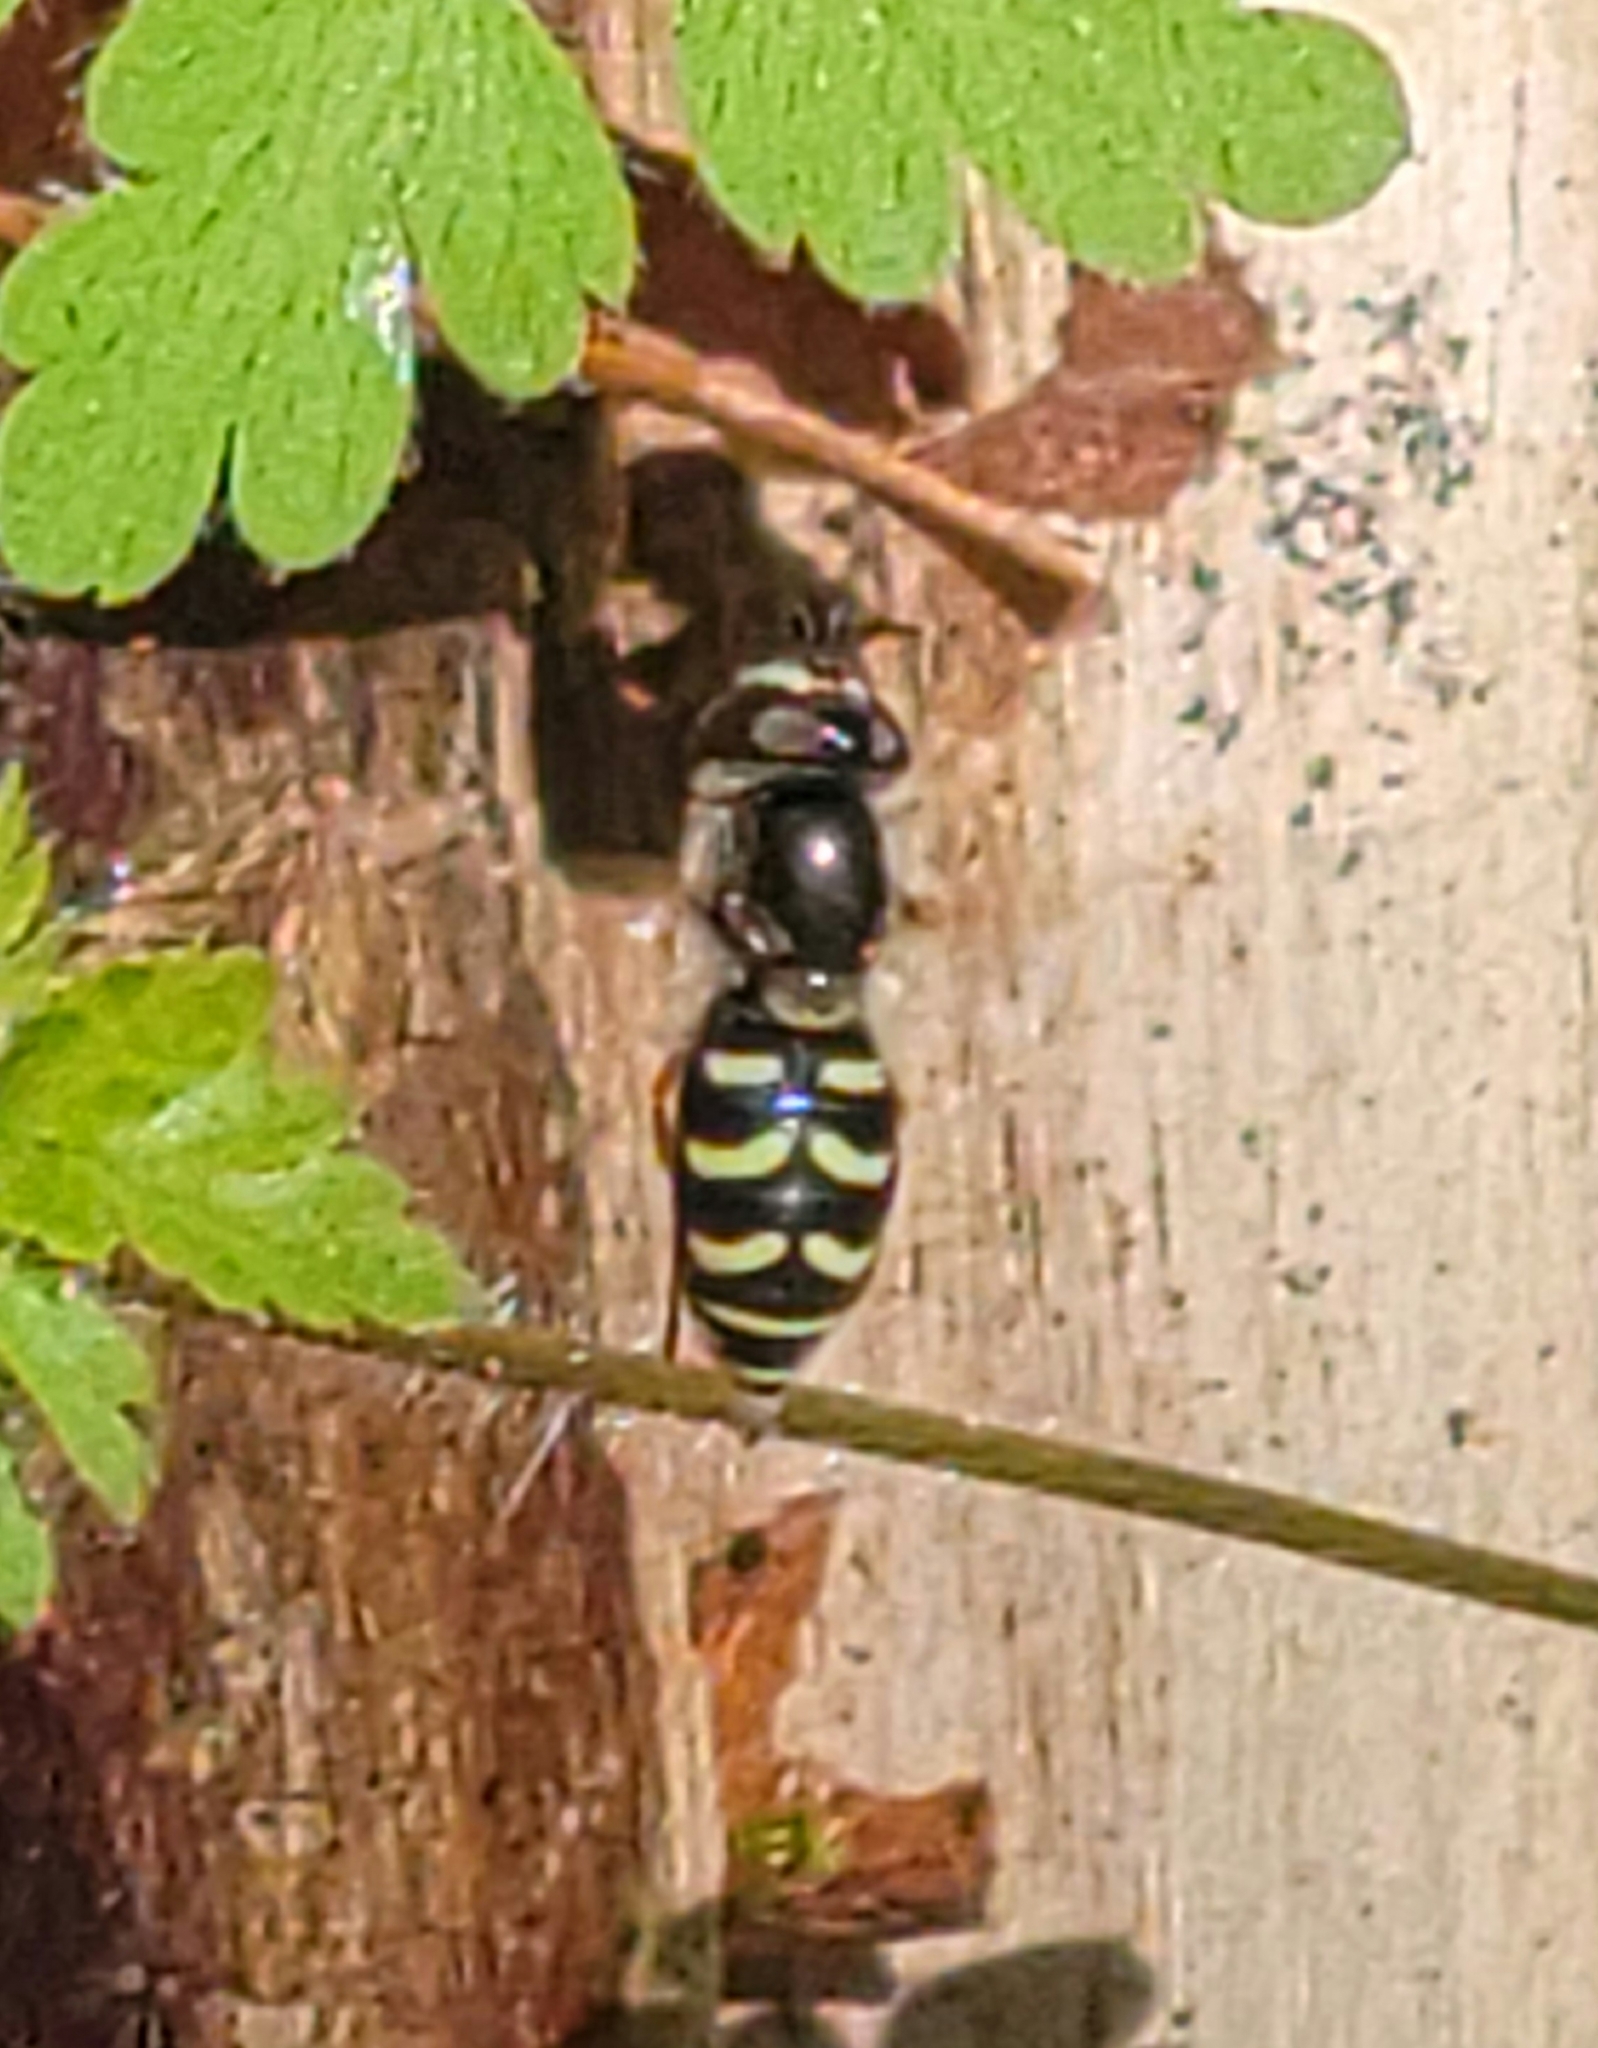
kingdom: Animalia
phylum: Arthropoda
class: Insecta
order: Diptera
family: Syrphidae
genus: Eupeodes
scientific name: Eupeodes volucris
